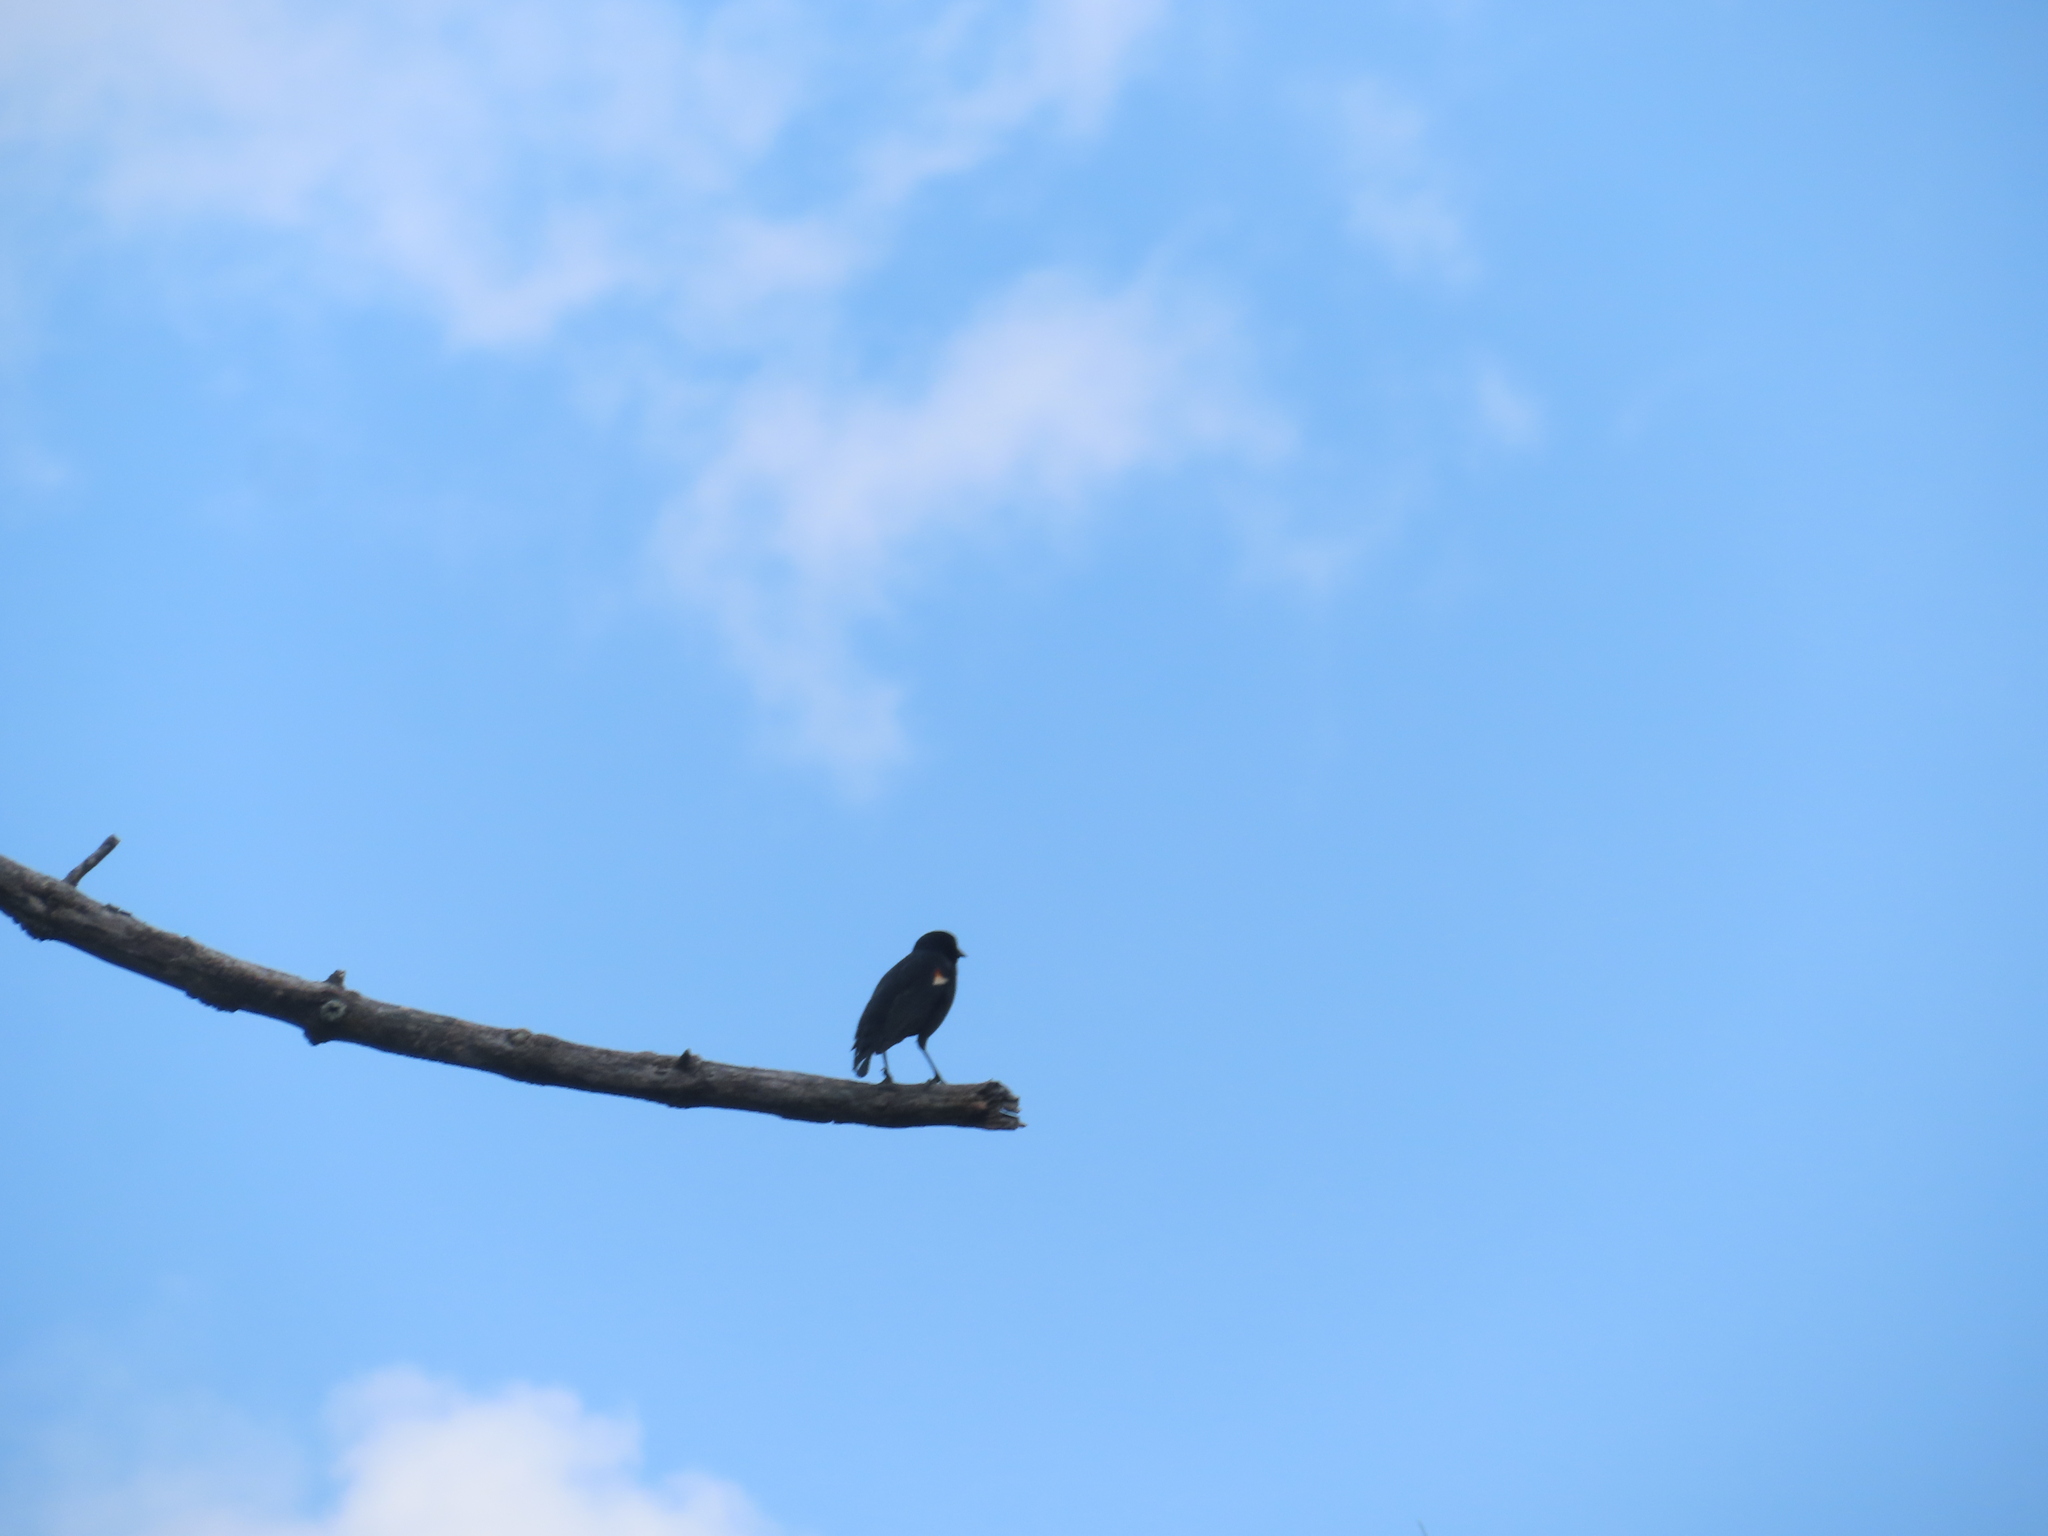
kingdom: Animalia
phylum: Chordata
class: Aves
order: Passeriformes
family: Icteridae
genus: Agelaius
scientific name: Agelaius phoeniceus
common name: Red-winged blackbird
